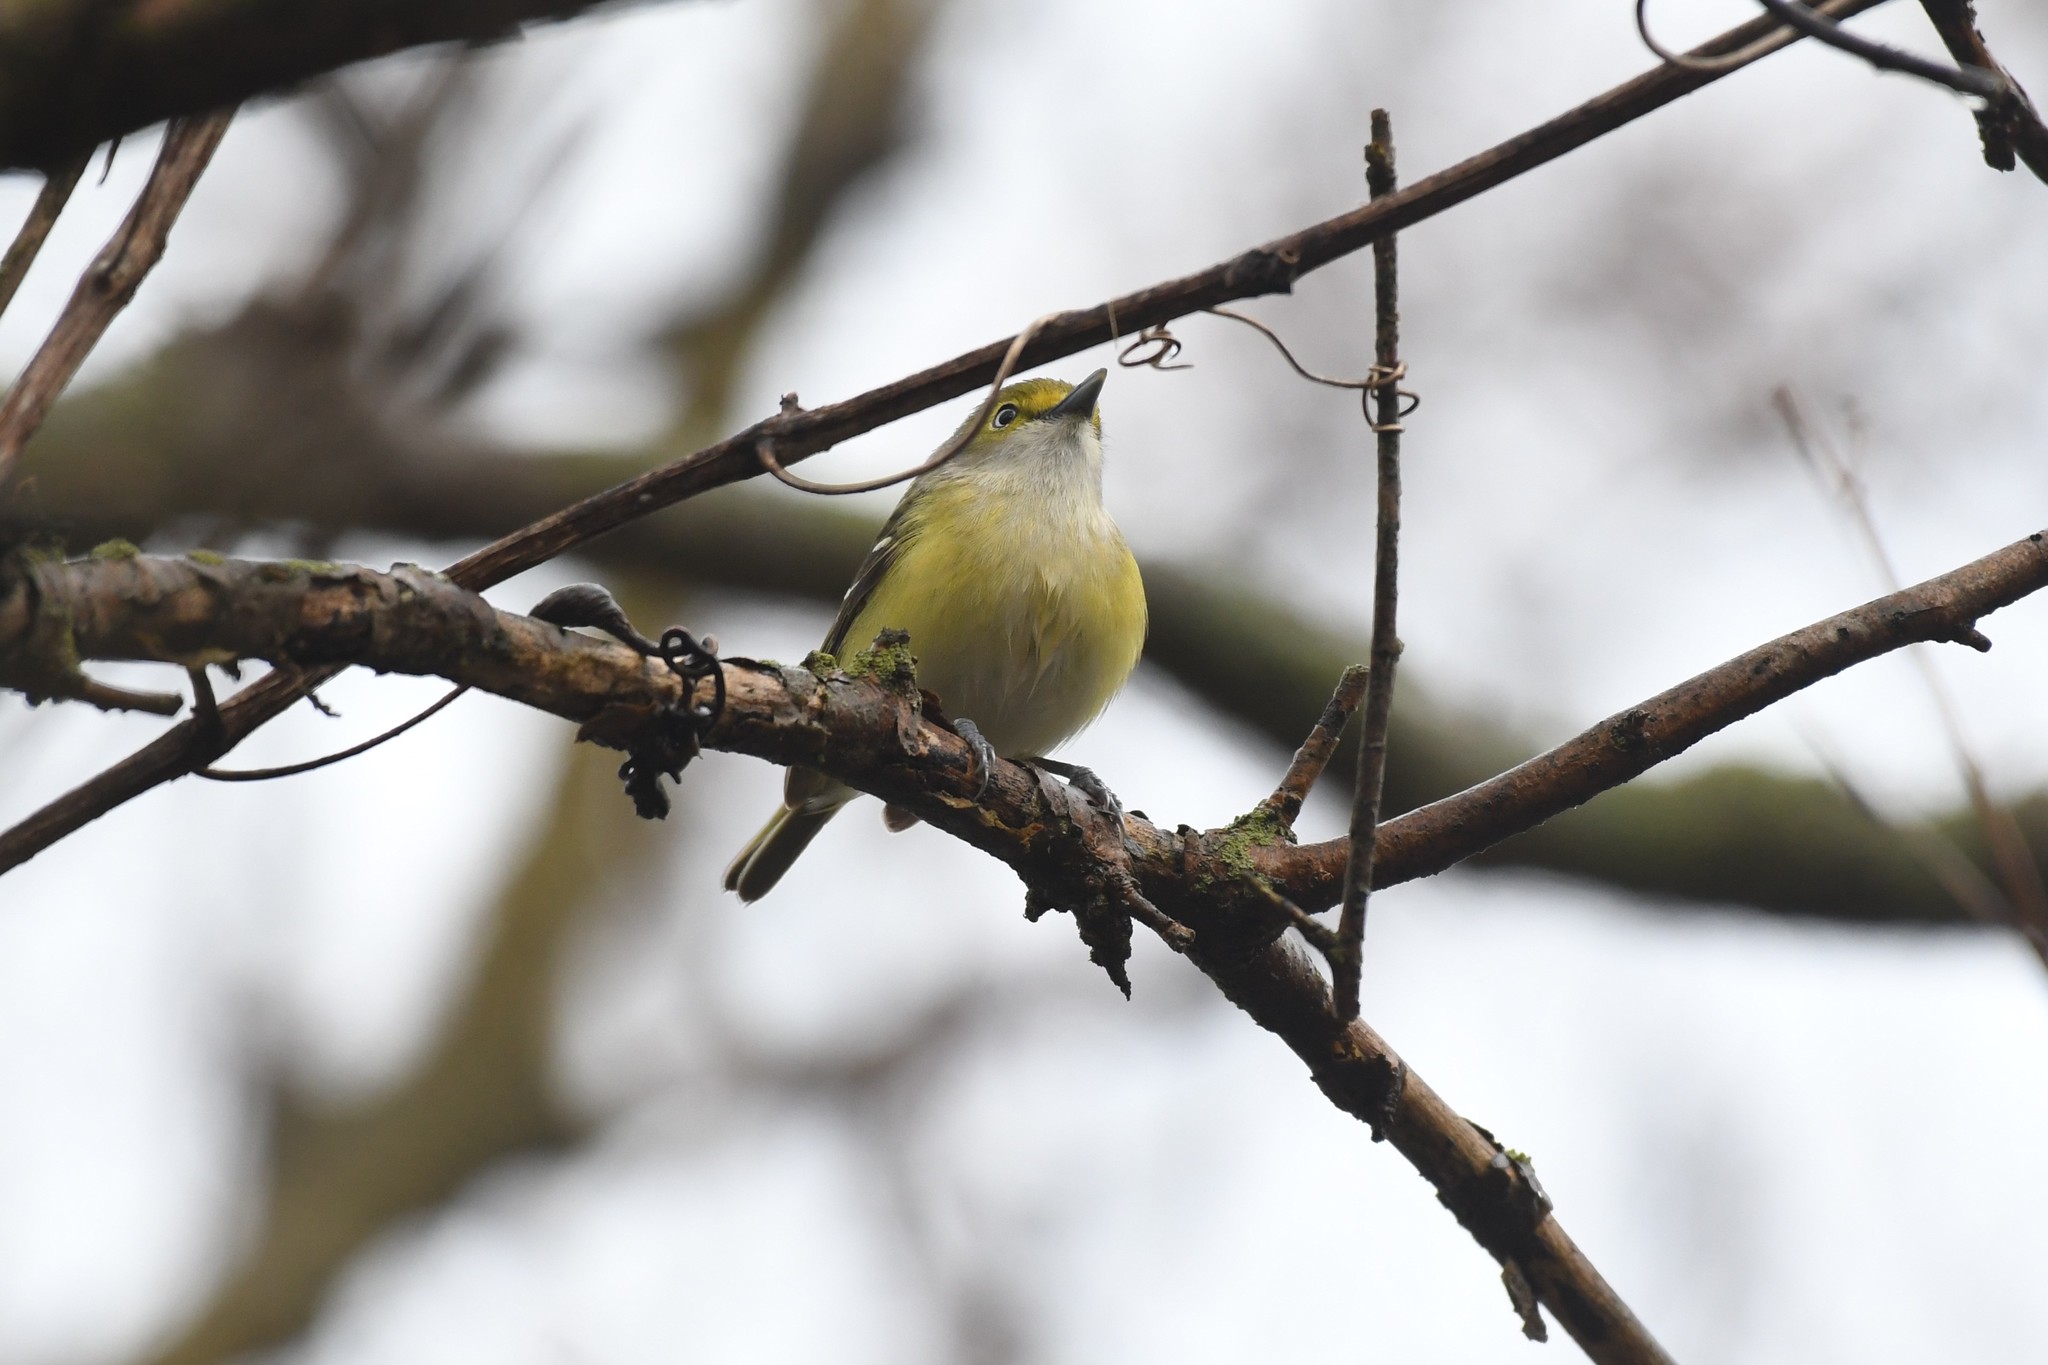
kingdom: Animalia
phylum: Chordata
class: Aves
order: Passeriformes
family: Vireonidae
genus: Vireo
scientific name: Vireo griseus
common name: White-eyed vireo
